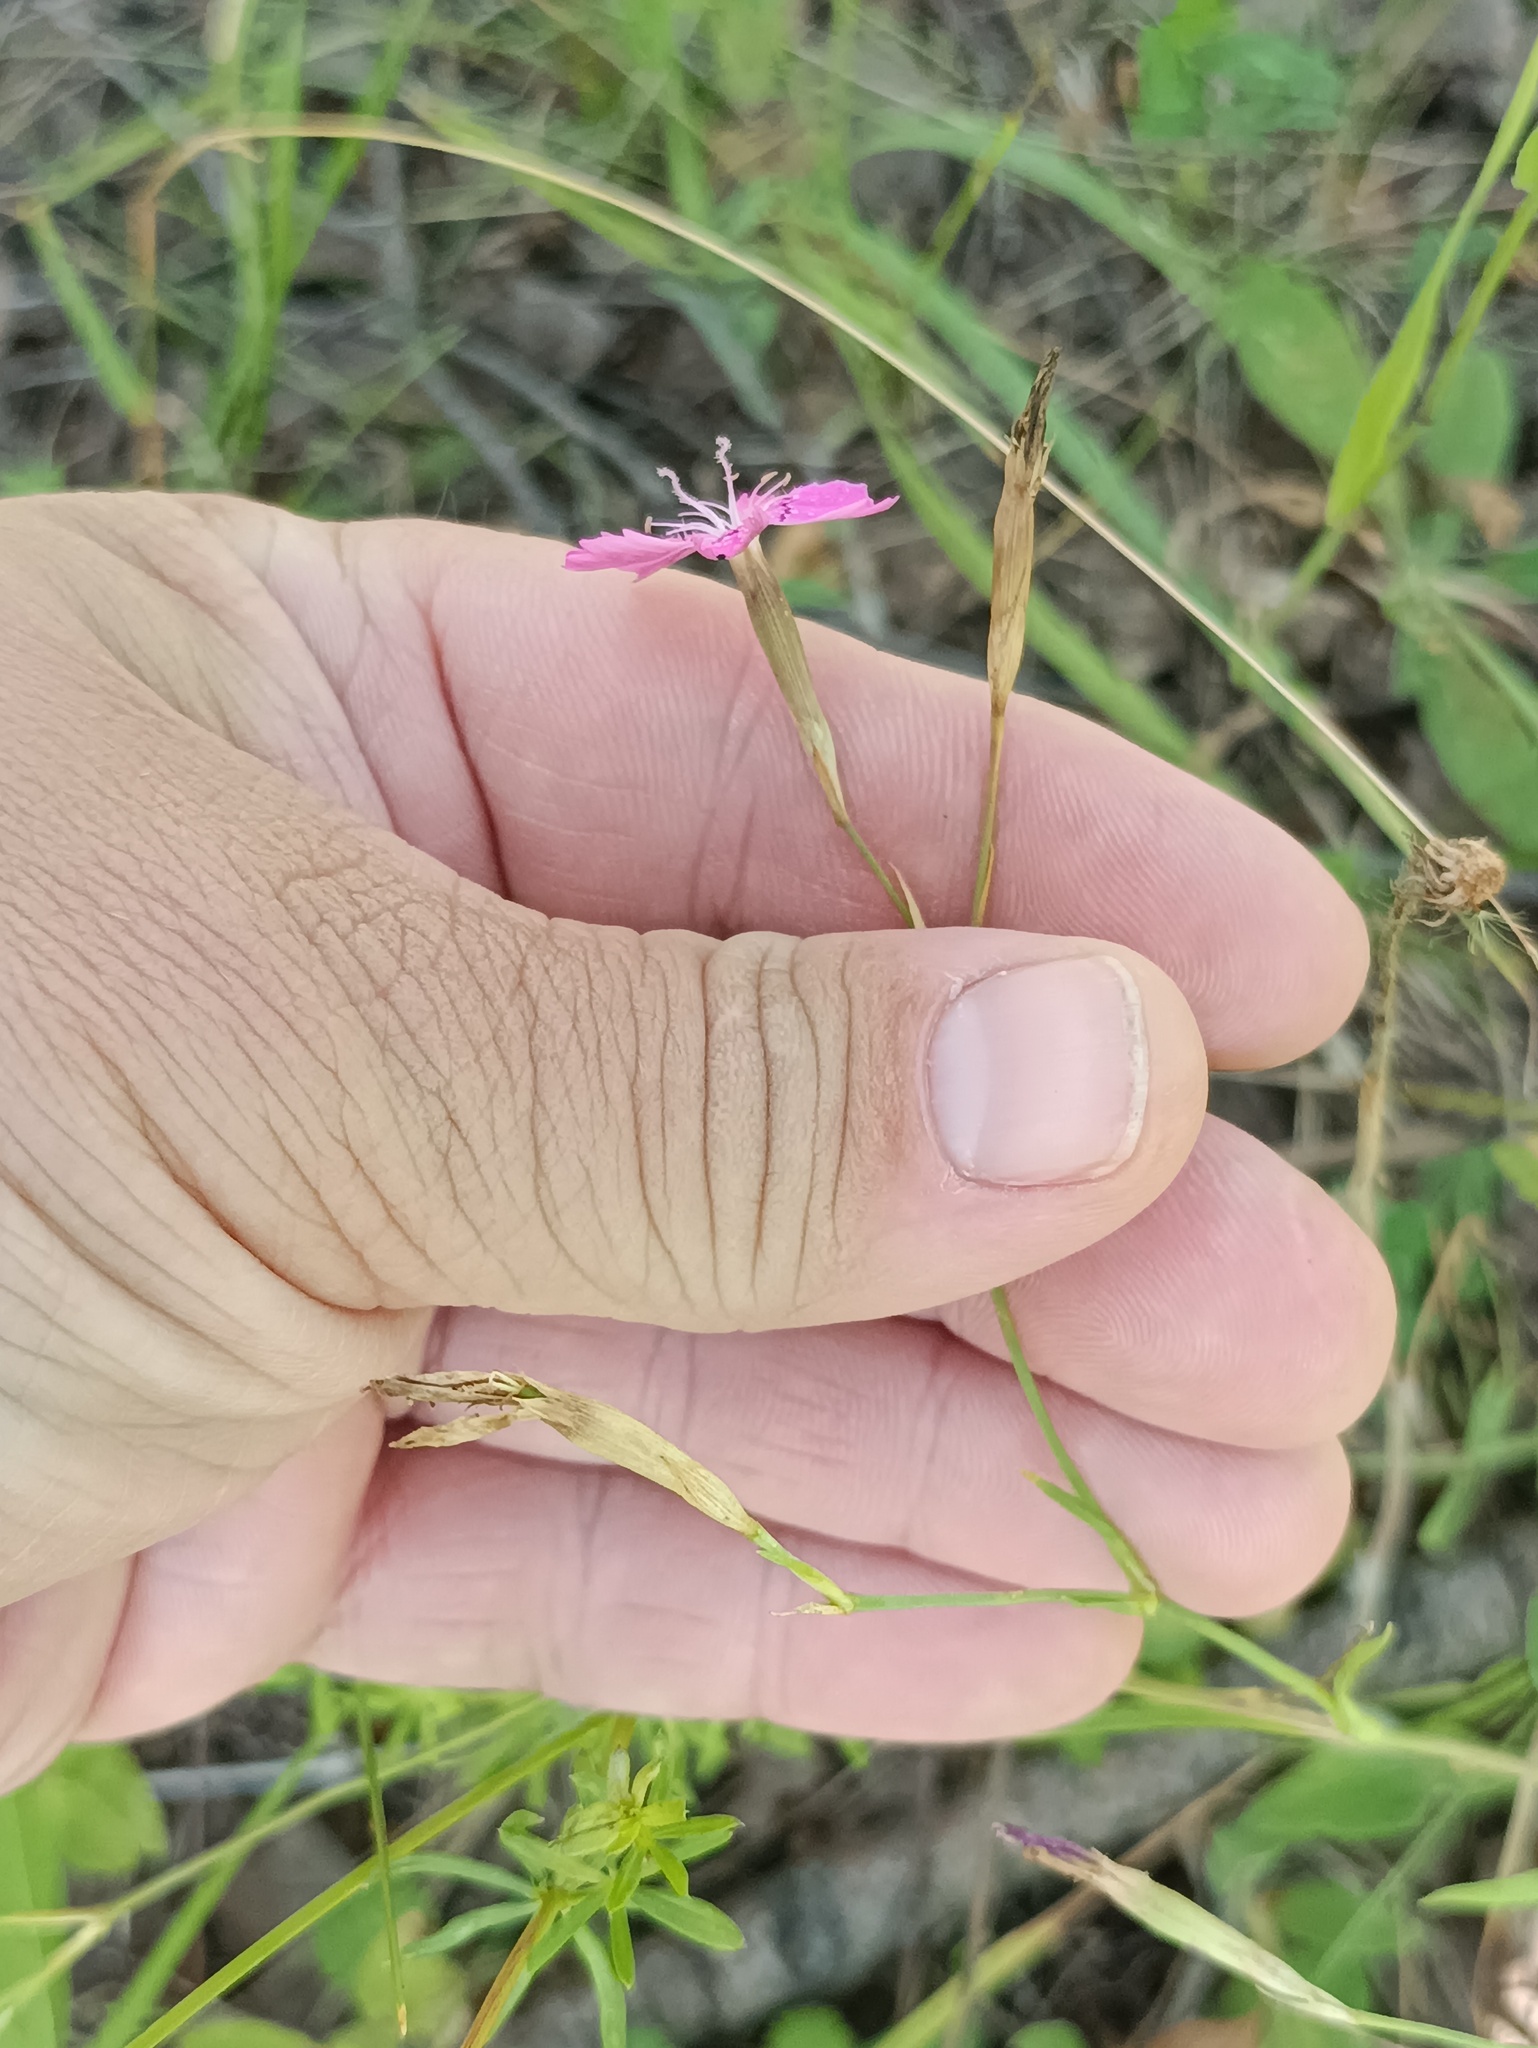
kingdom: Plantae
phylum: Tracheophyta
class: Magnoliopsida
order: Caryophyllales
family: Caryophyllaceae
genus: Dianthus
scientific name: Dianthus deltoides
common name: Maiden pink
